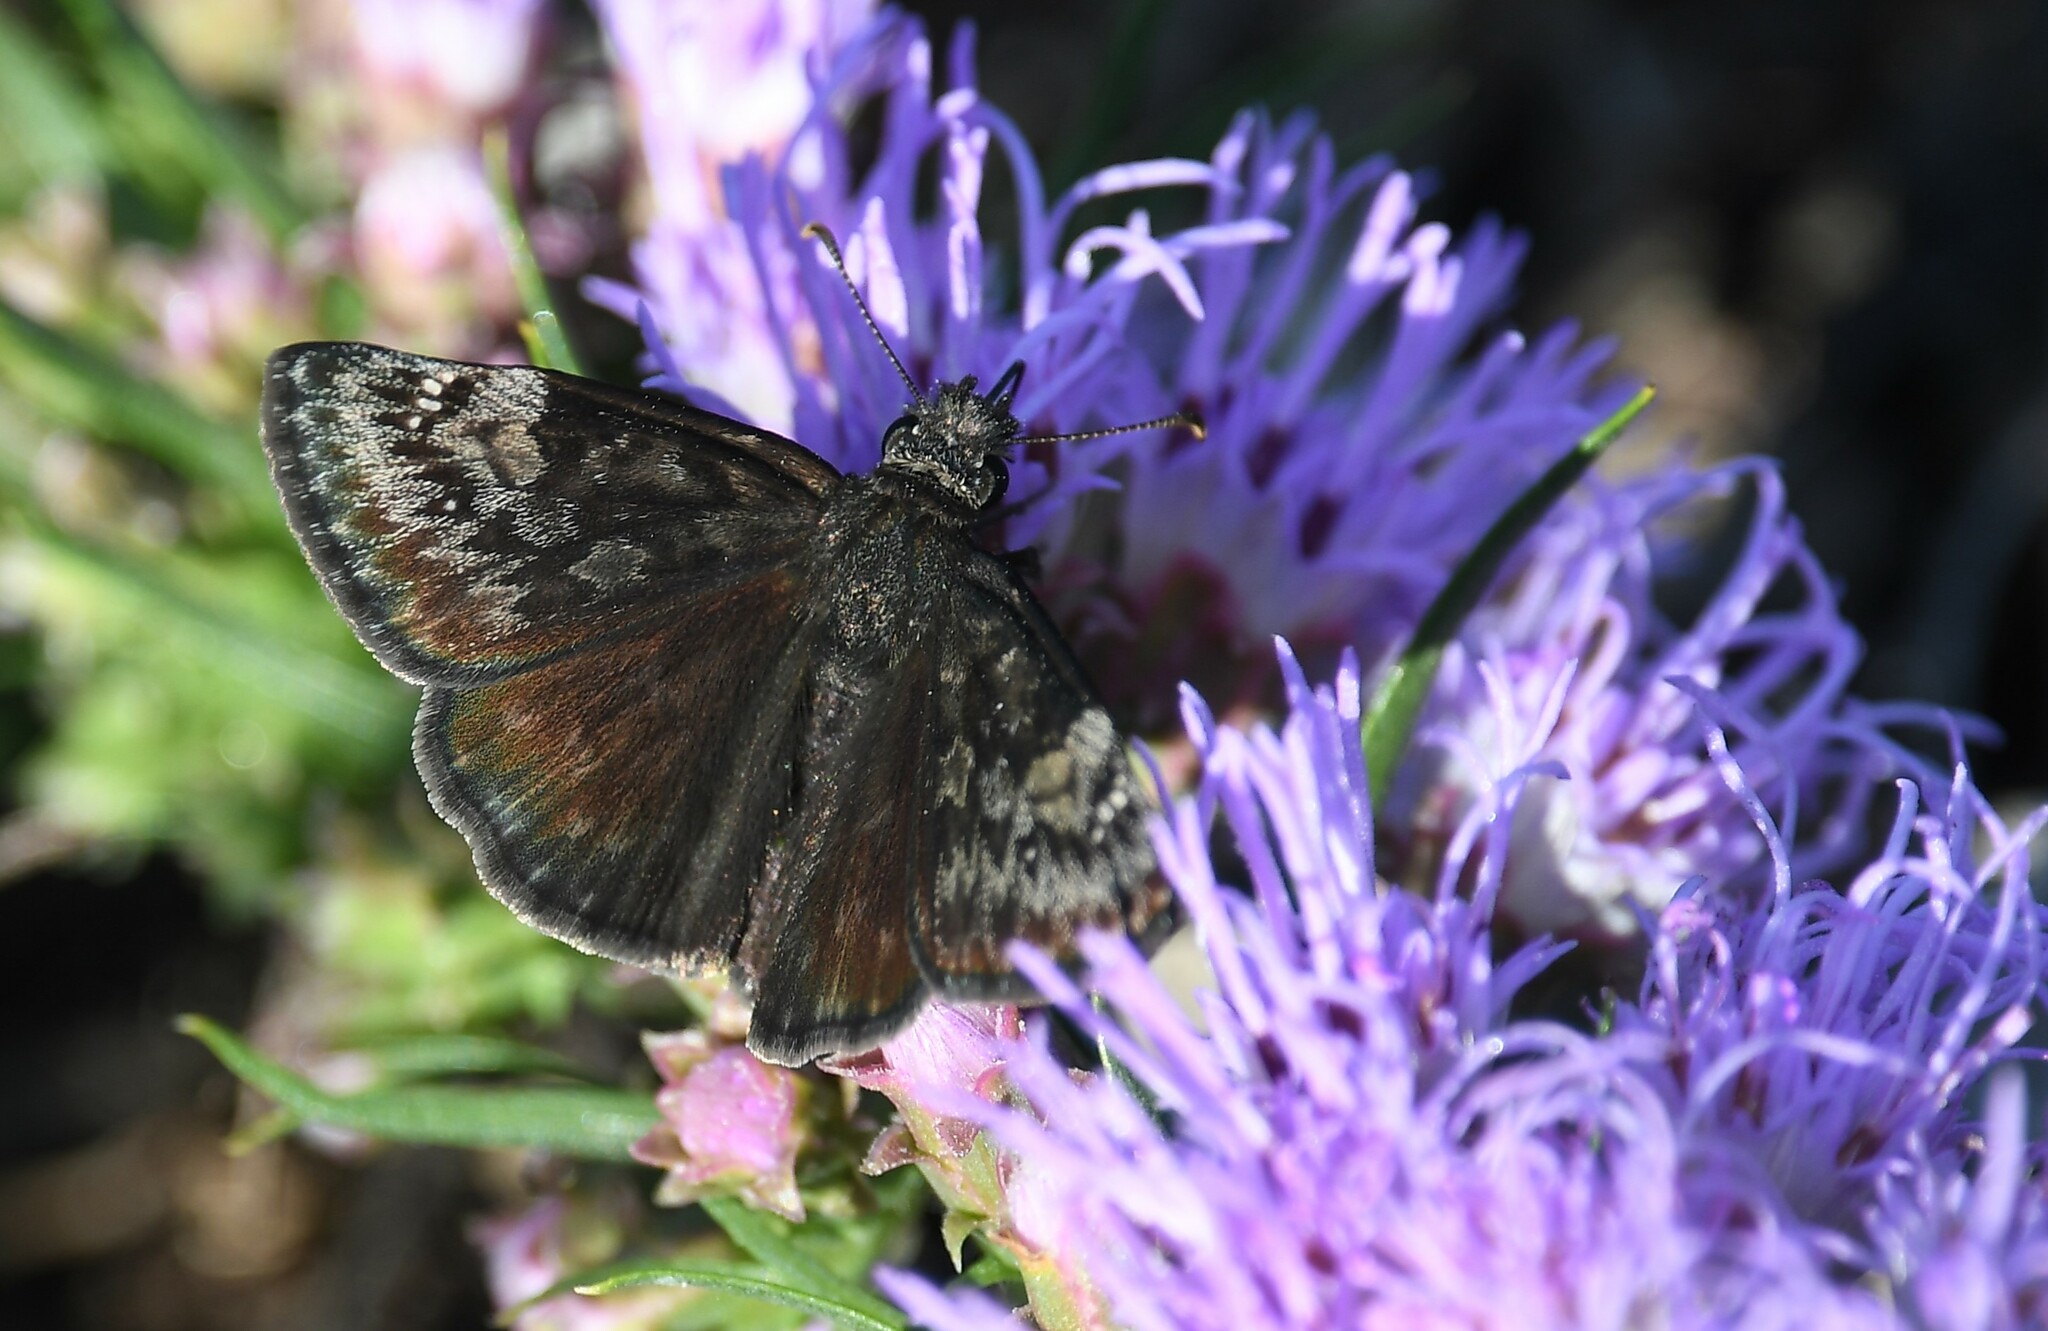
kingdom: Animalia
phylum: Arthropoda
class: Insecta
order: Lepidoptera
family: Hesperiidae
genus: Erynnis
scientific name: Erynnis baptisiae
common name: Wild indigo duskywing
